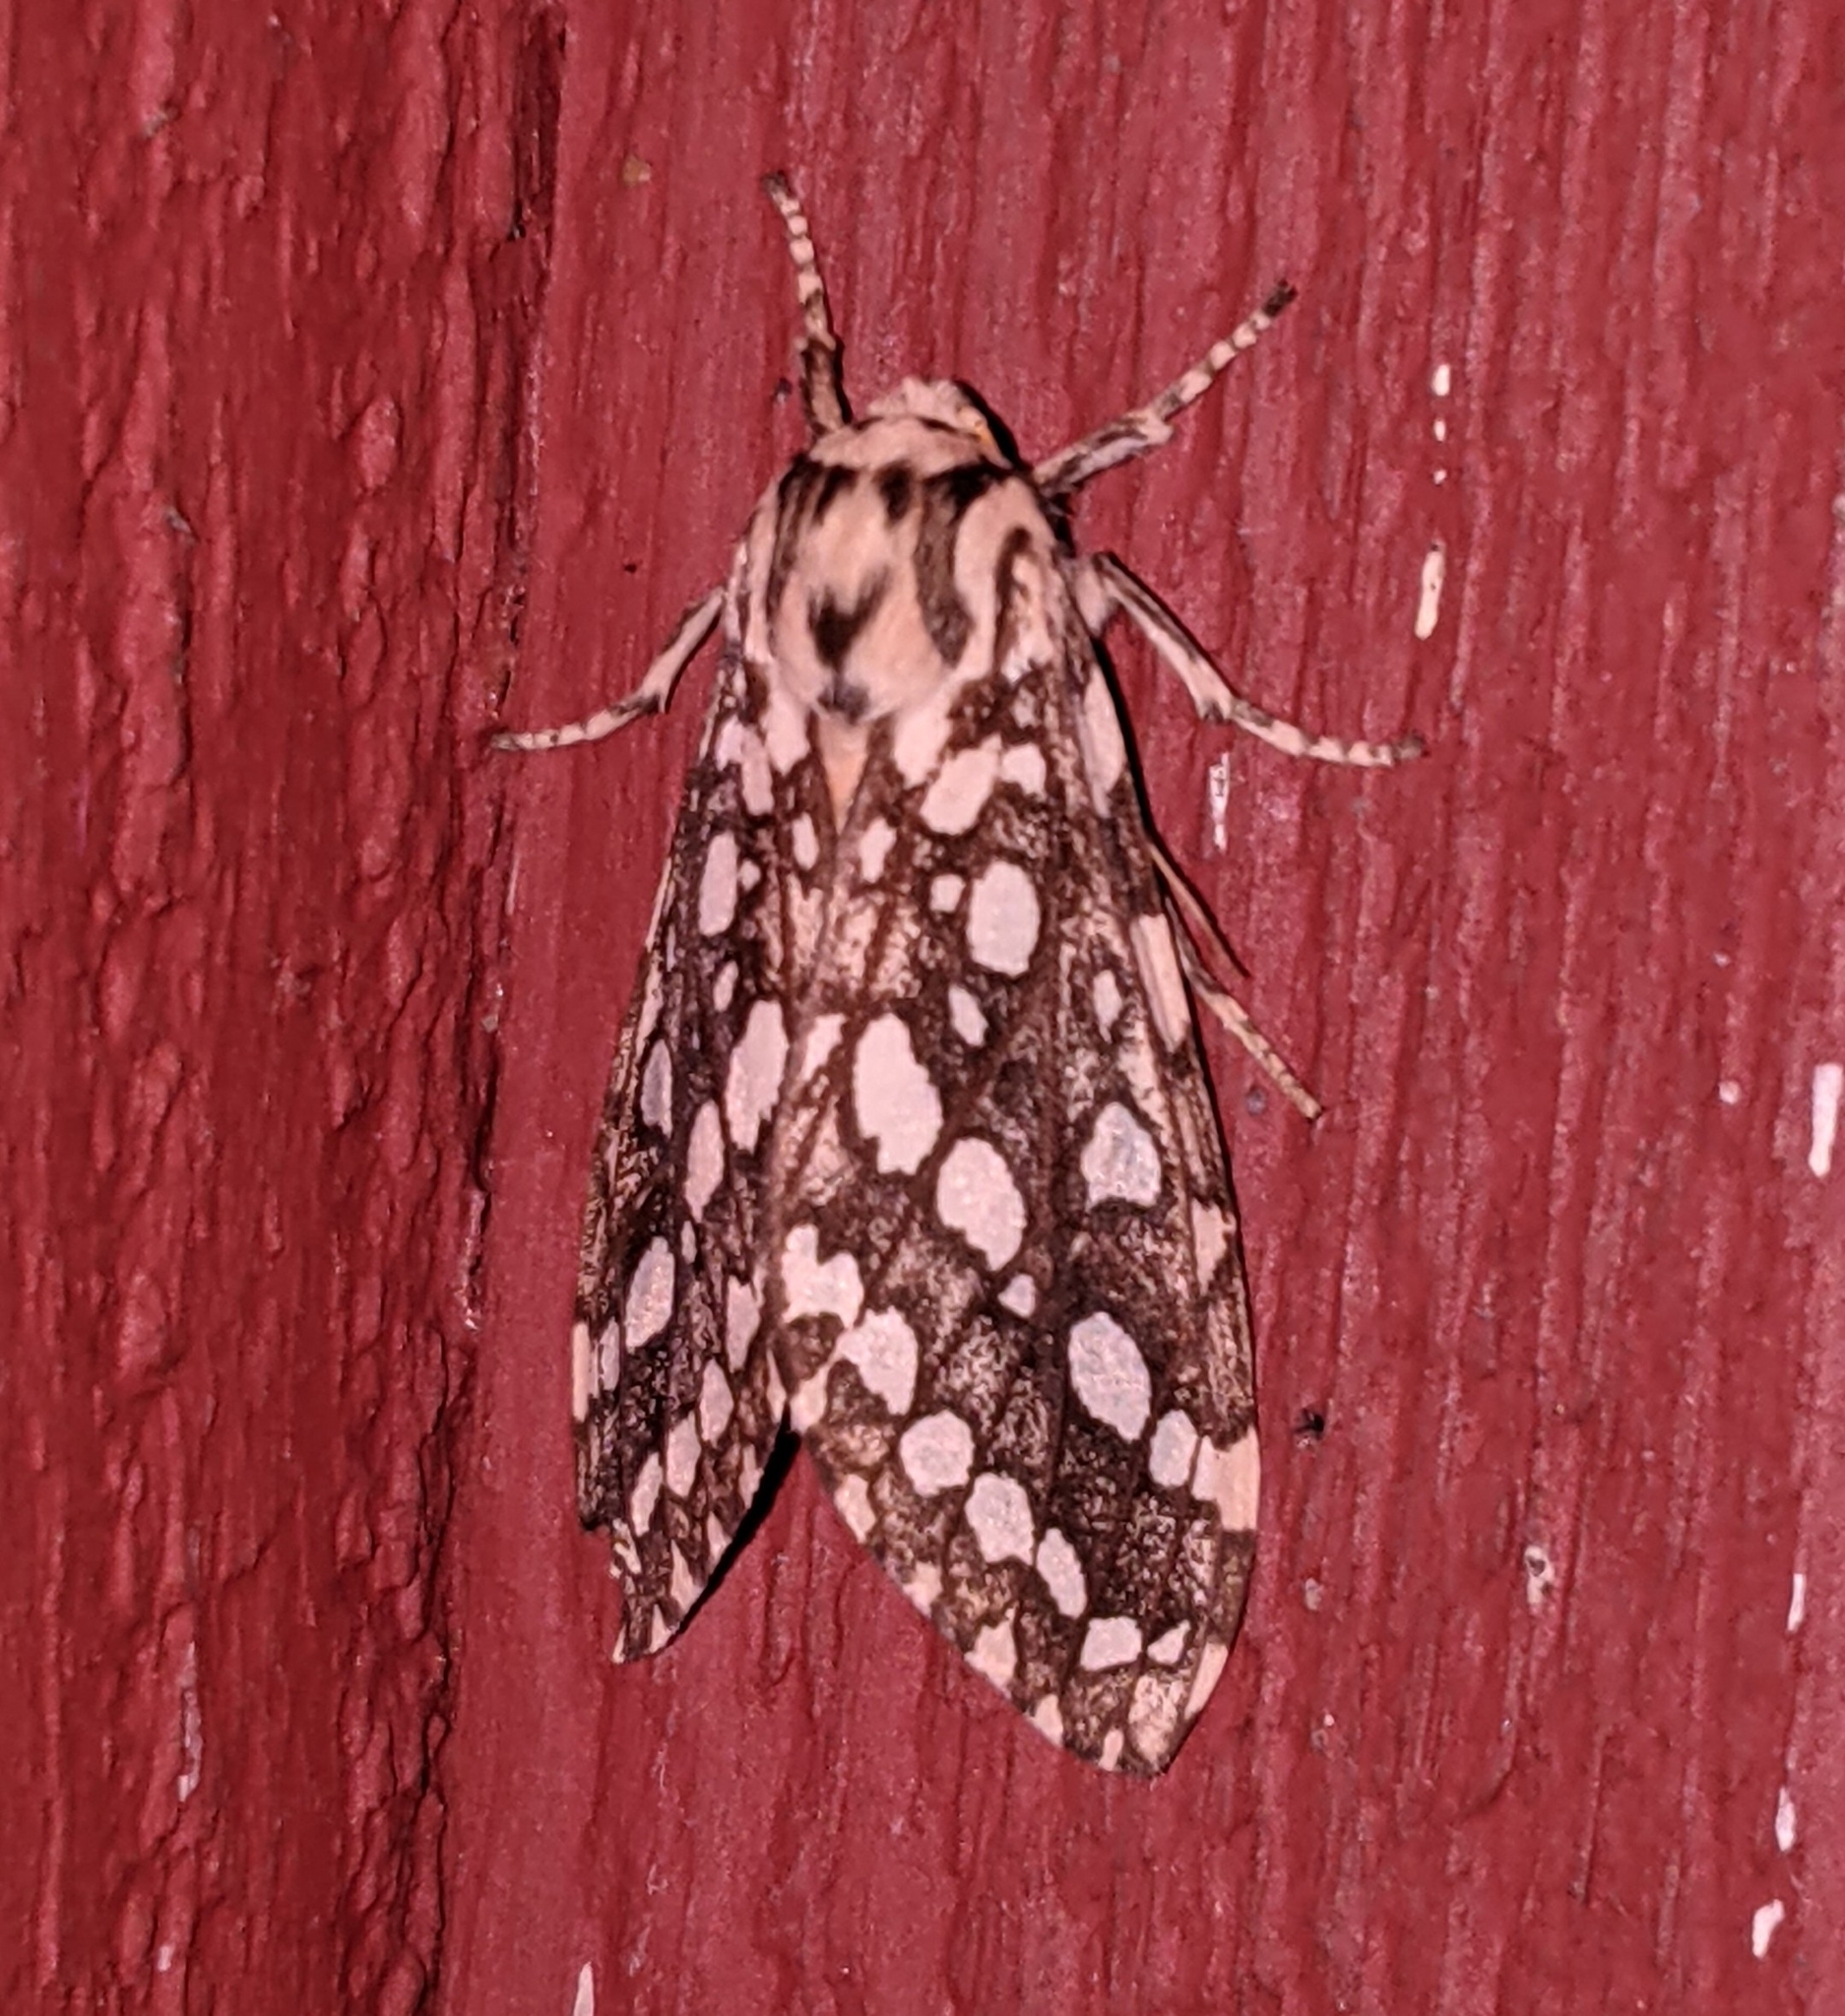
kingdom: Animalia
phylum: Arthropoda
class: Insecta
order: Lepidoptera
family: Erebidae
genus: Lophocampa
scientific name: Lophocampa argentata
